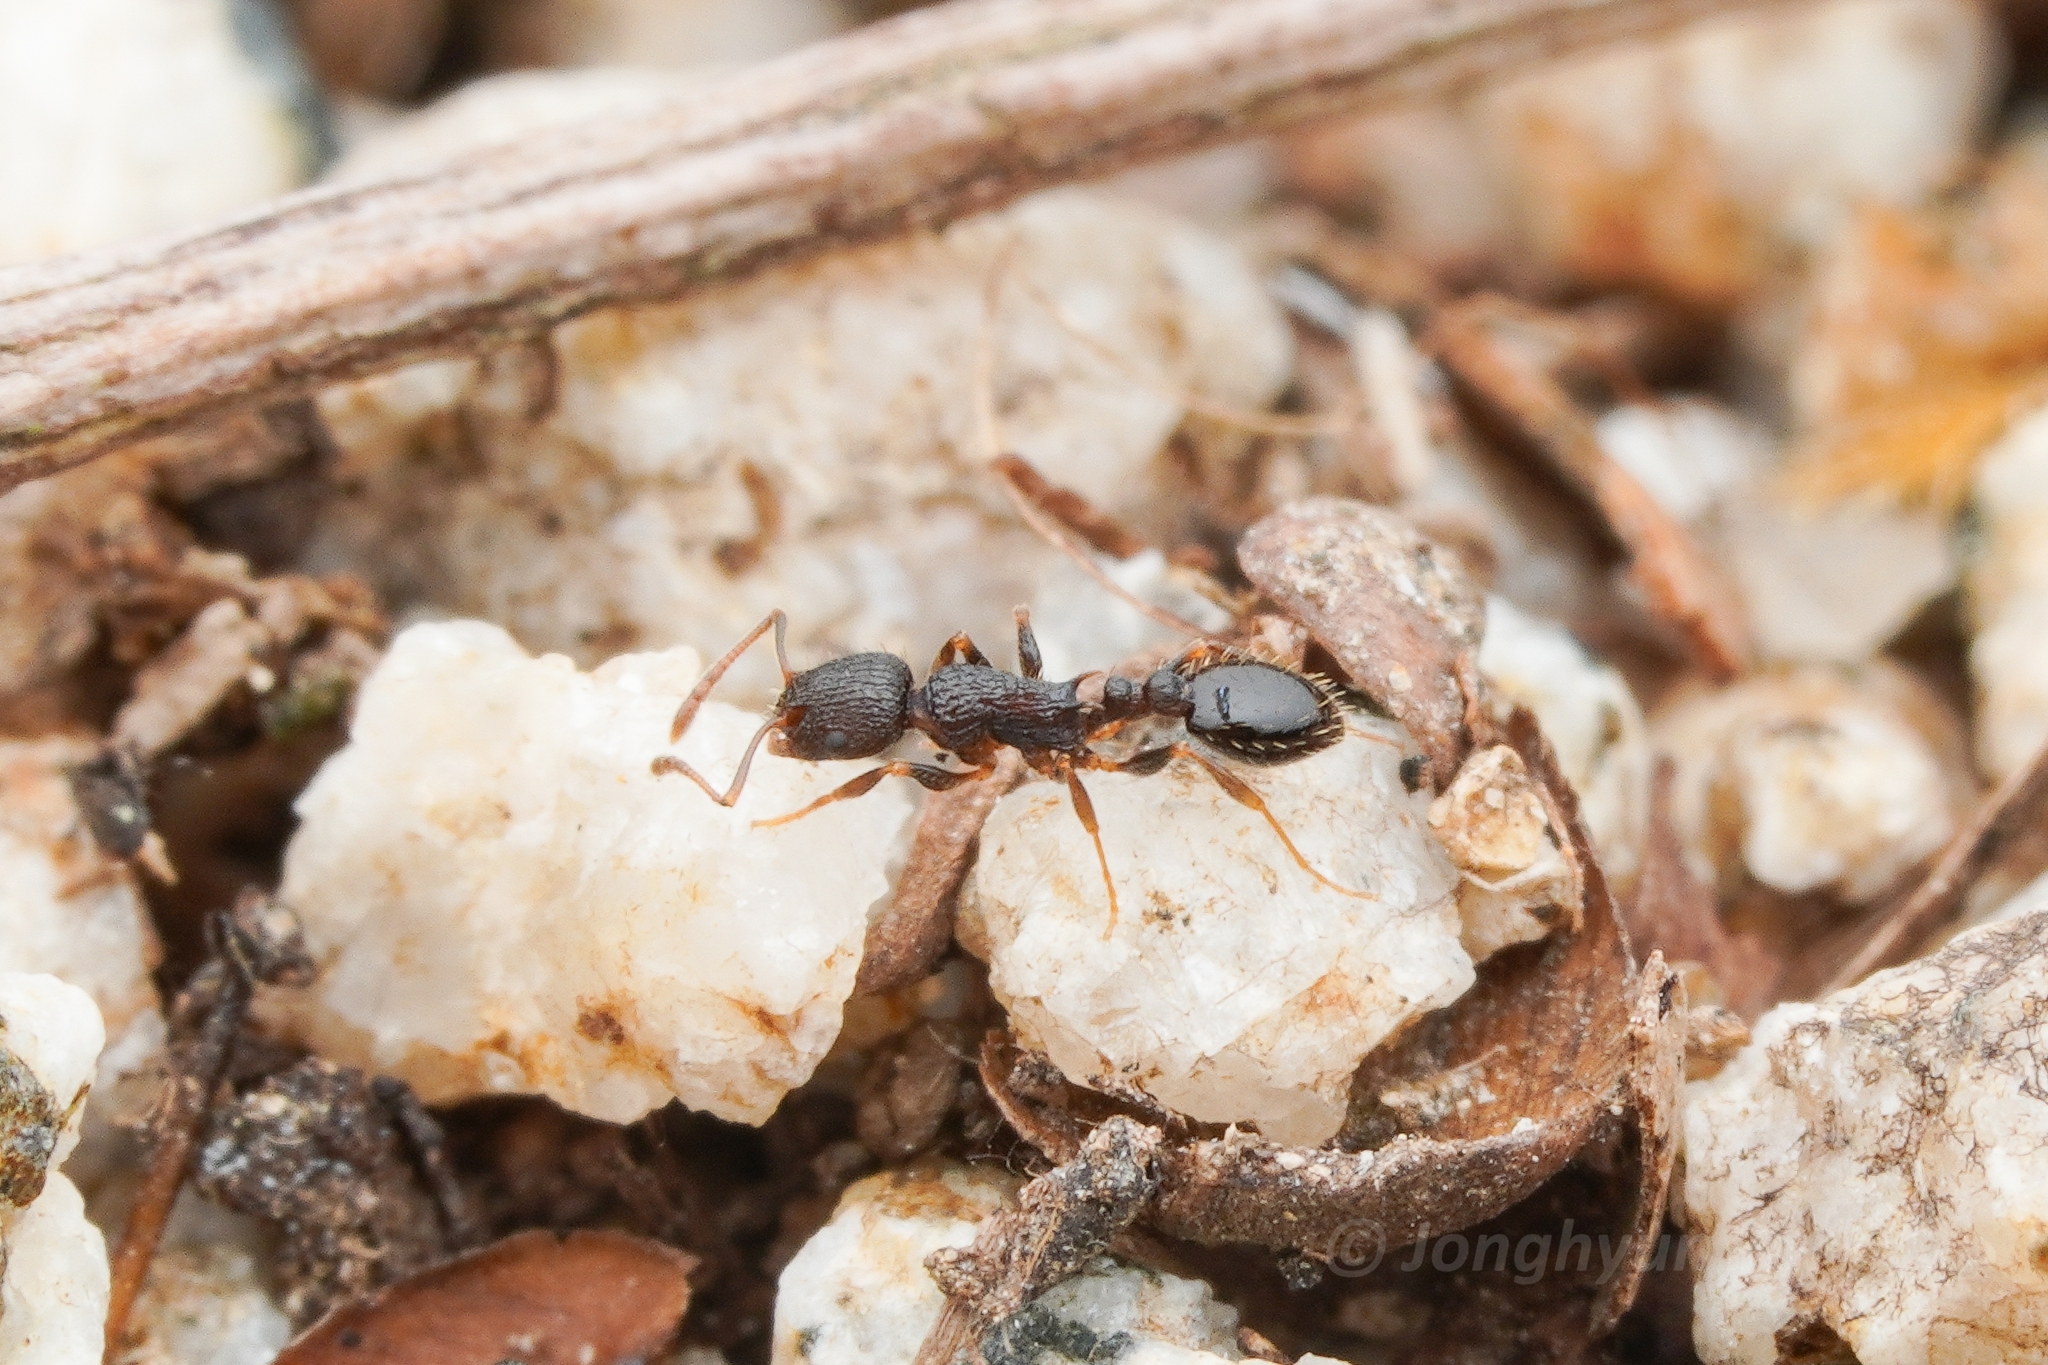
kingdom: Animalia
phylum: Arthropoda
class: Insecta
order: Hymenoptera
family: Formicidae
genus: Temnothorax
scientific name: Temnothorax
